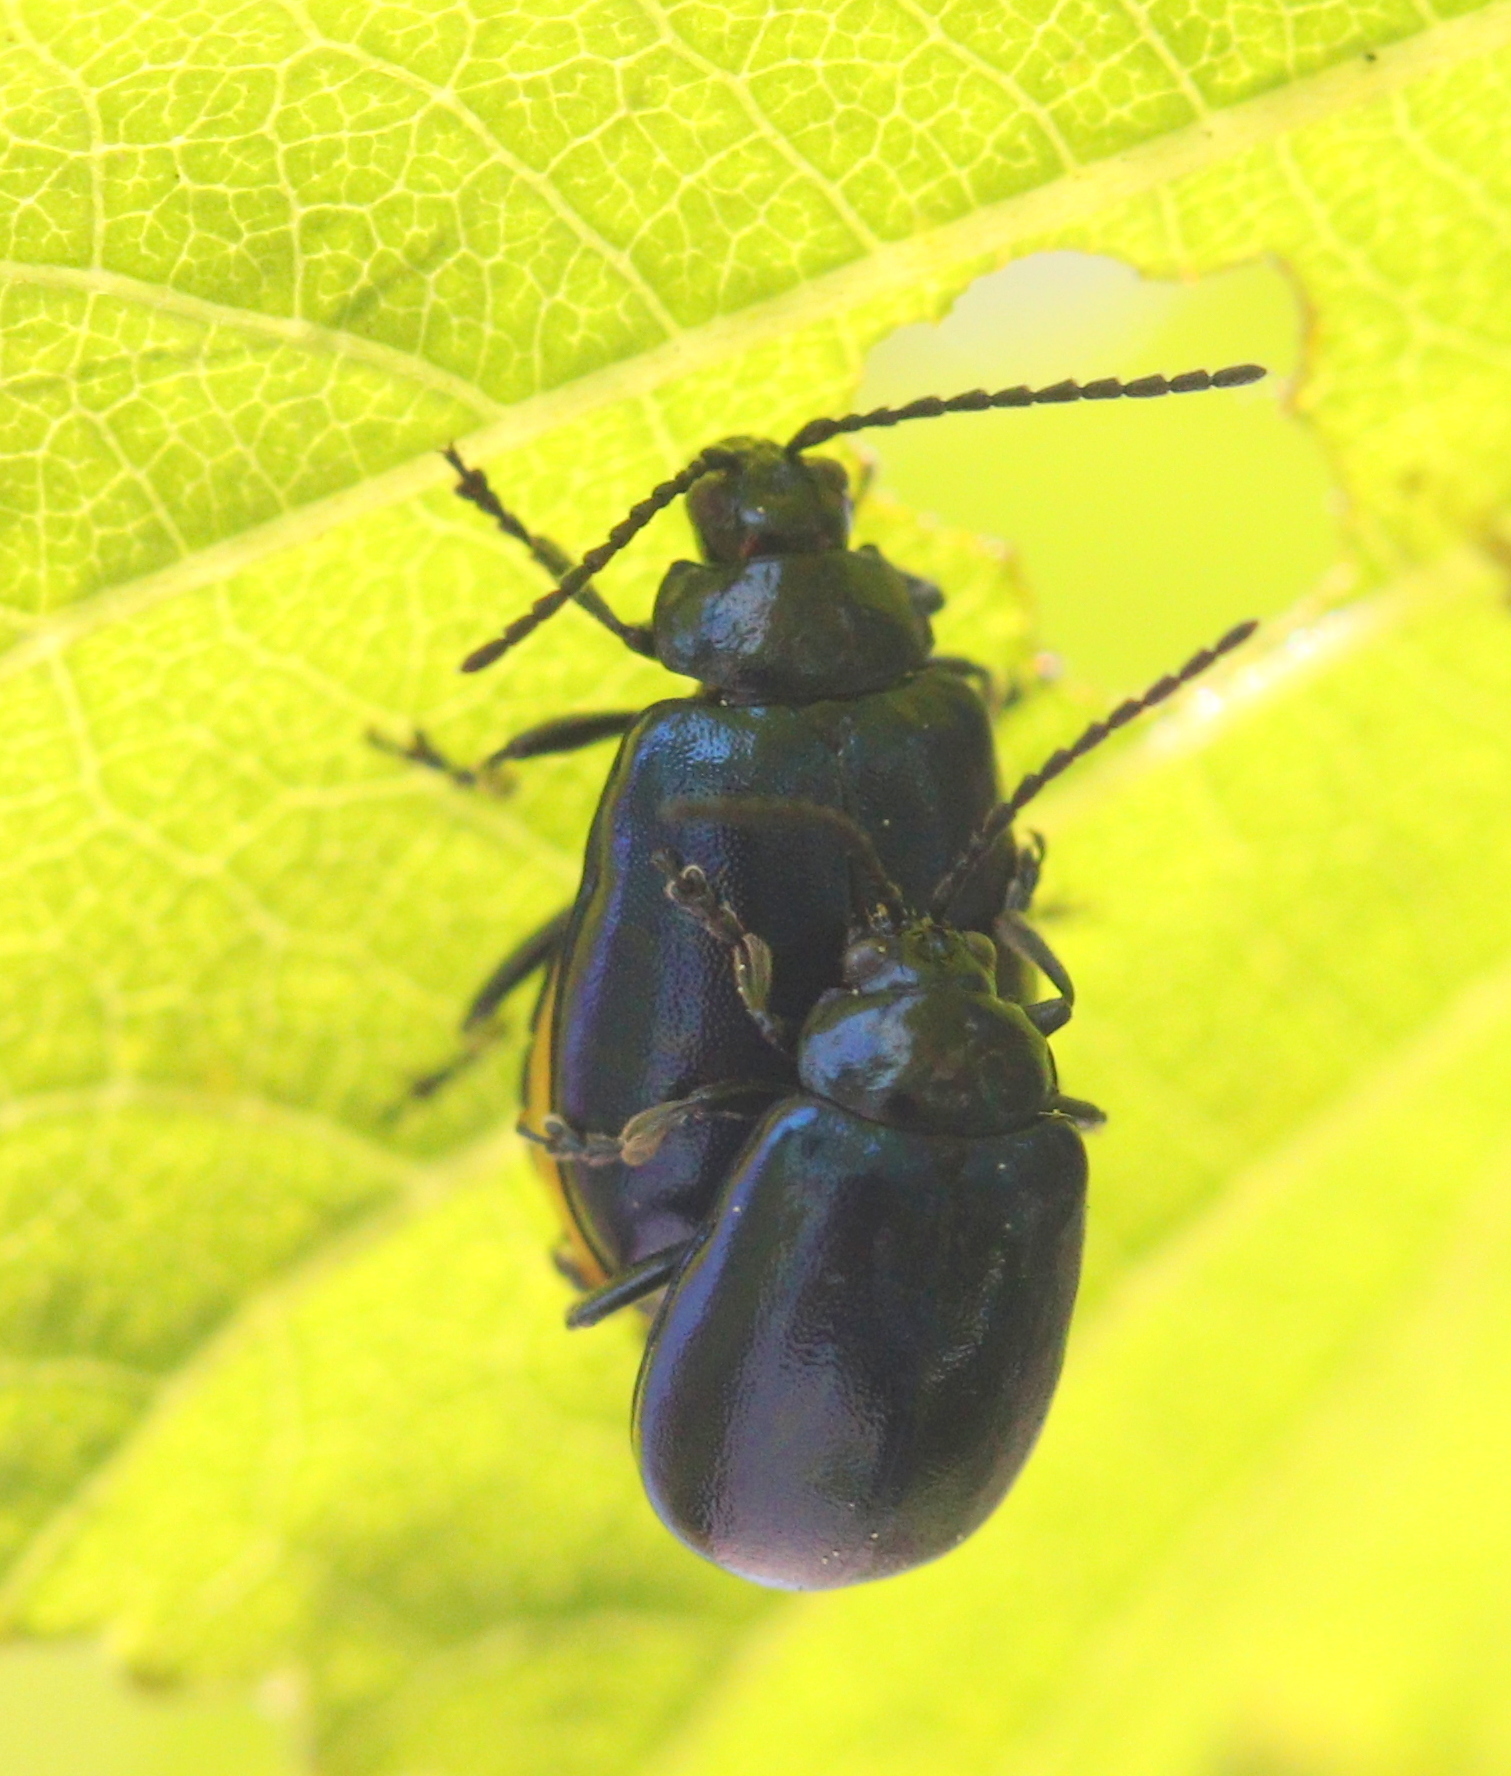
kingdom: Animalia
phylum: Arthropoda
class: Insecta
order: Coleoptera
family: Chrysomelidae
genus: Agelastica
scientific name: Agelastica alni
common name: Alder leaf beetle
